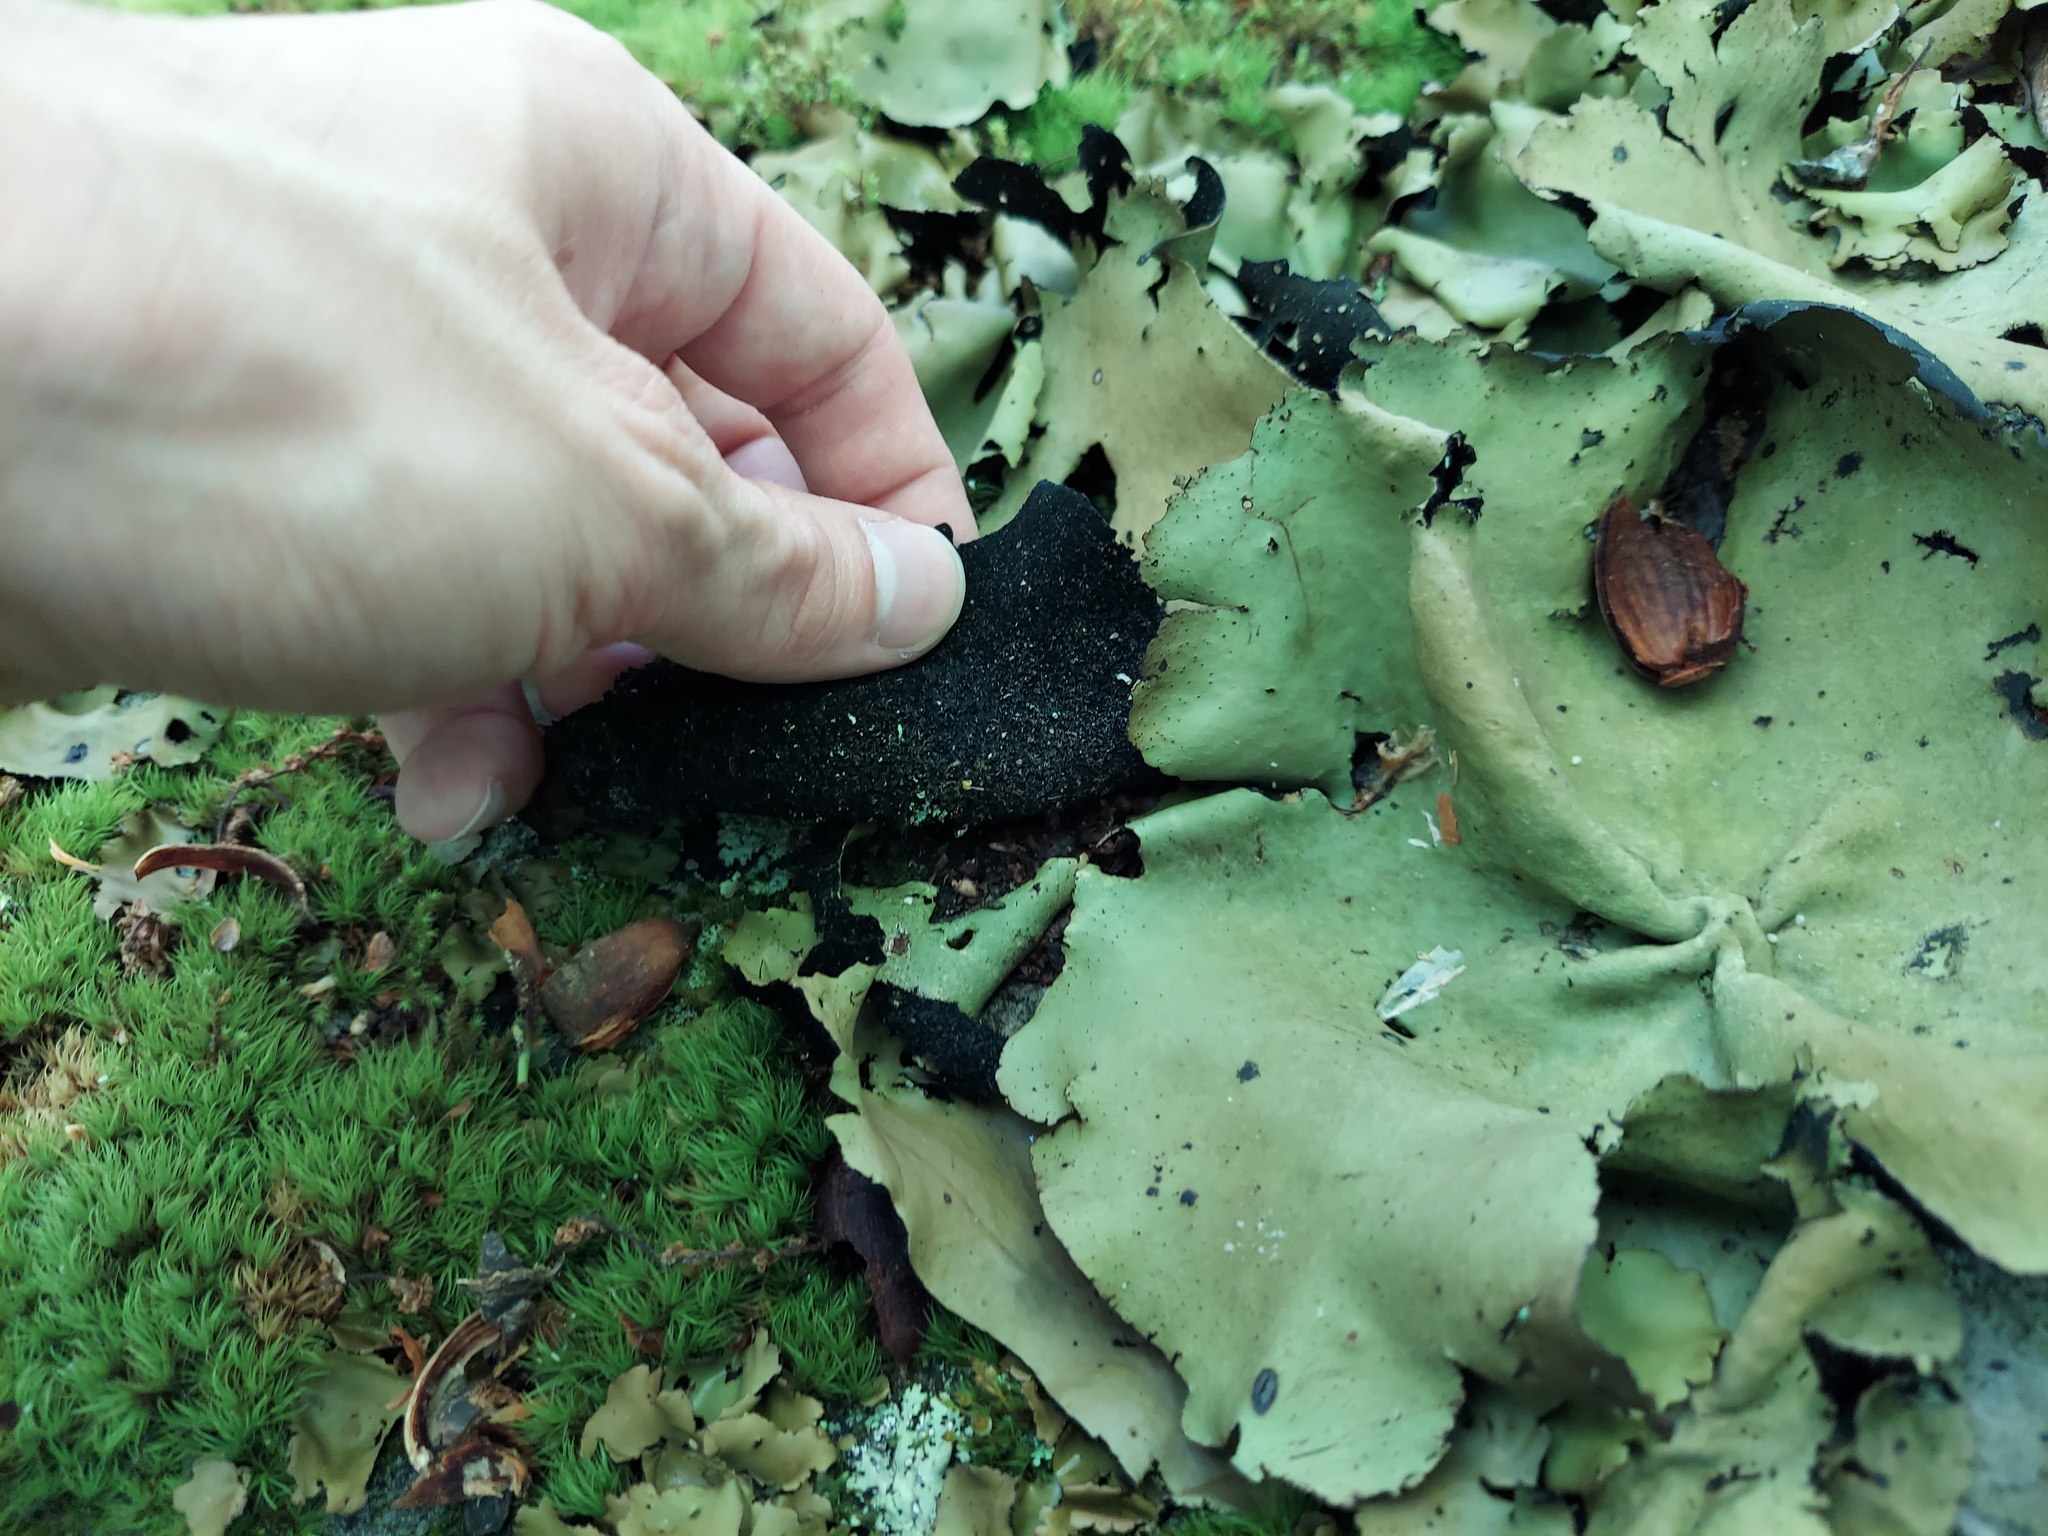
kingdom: Fungi
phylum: Ascomycota
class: Lecanoromycetes
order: Umbilicariales
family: Umbilicariaceae
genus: Umbilicaria
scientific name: Umbilicaria mammulata
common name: Smooth rock tripe
